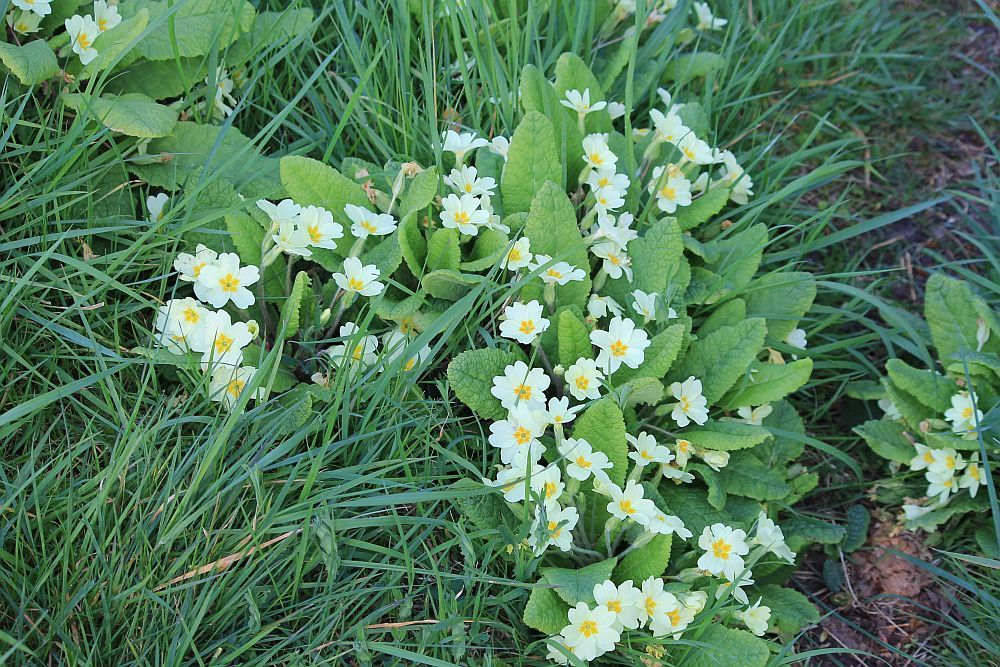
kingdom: Plantae
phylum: Tracheophyta
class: Magnoliopsida
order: Ericales
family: Primulaceae
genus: Primula
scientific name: Primula vulgaris
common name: Primrose
